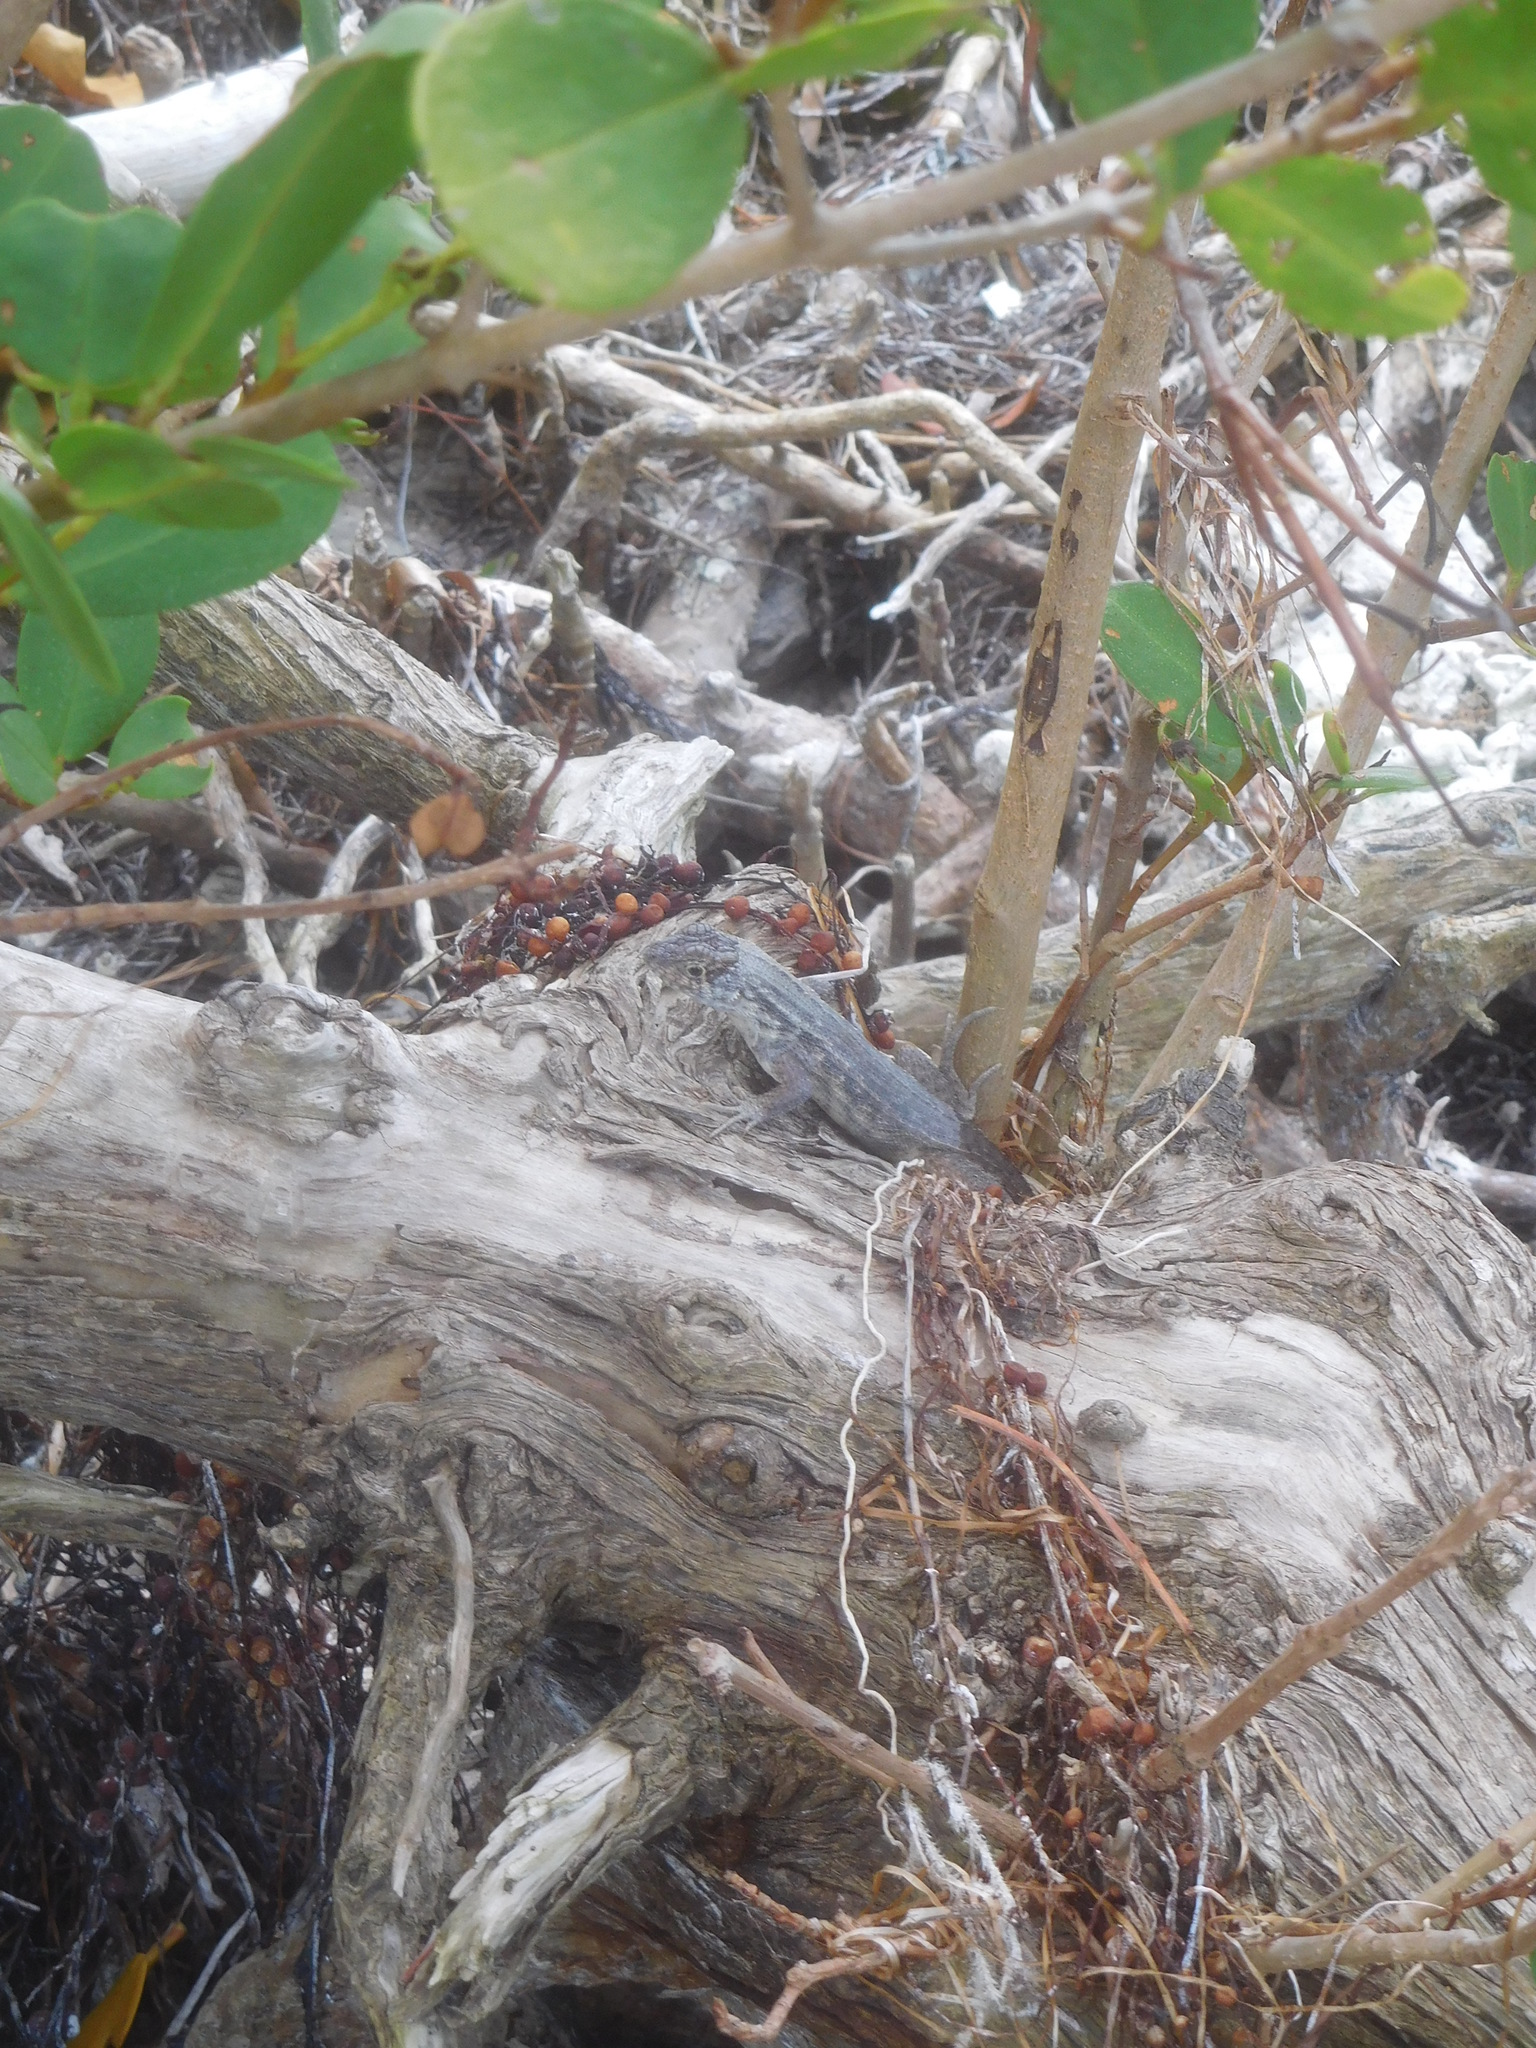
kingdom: Animalia
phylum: Chordata
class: Squamata
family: Leiocephalidae
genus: Leiocephalus
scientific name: Leiocephalus carinatus
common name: Northern curly-tailed lizard
